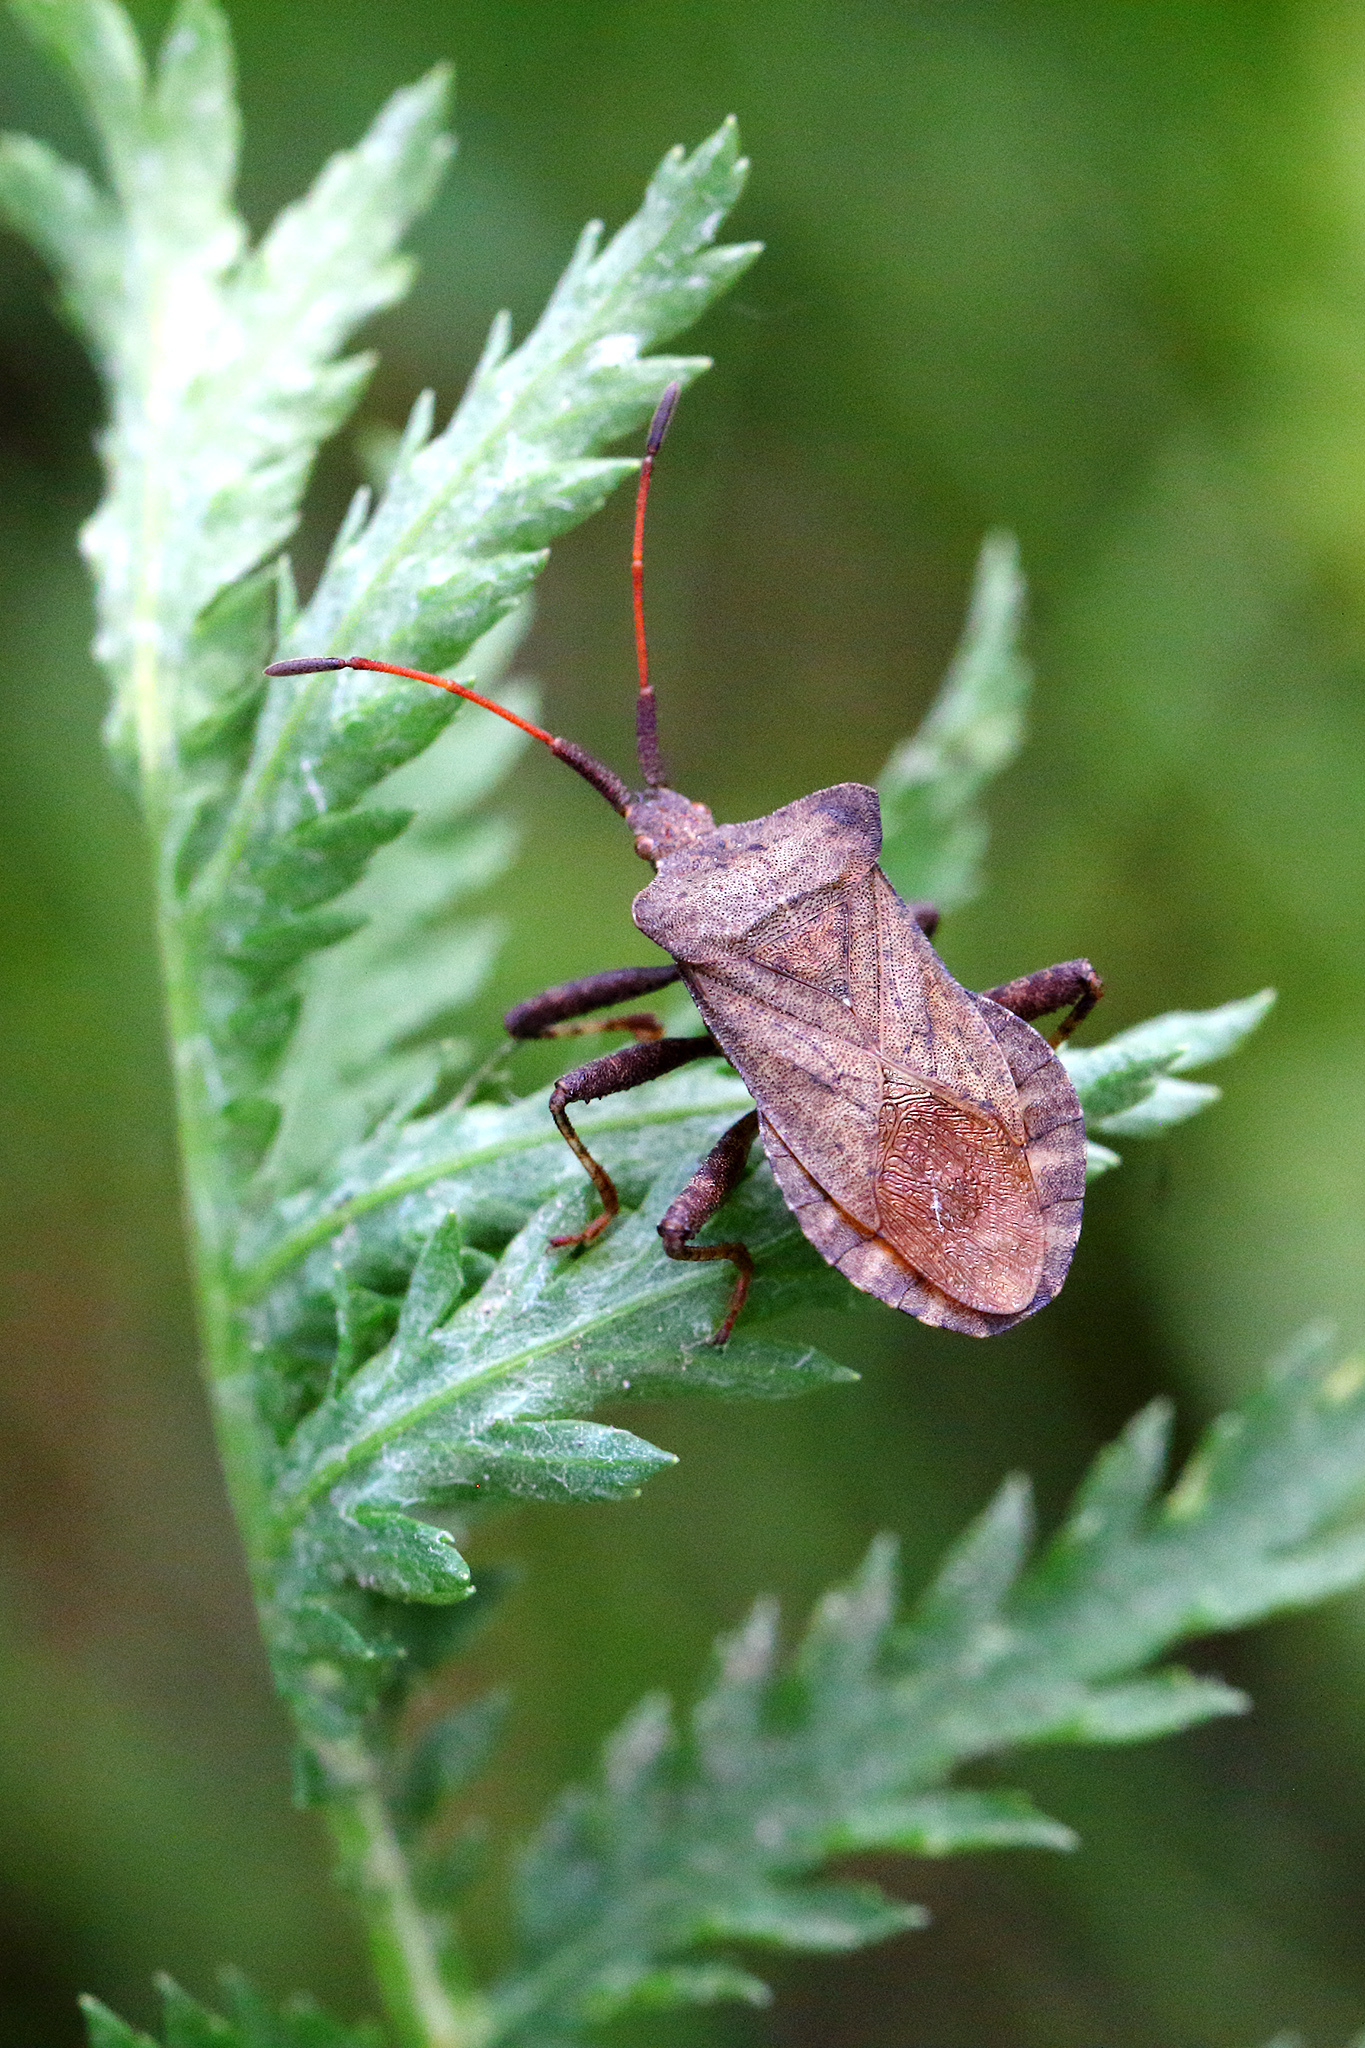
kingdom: Animalia
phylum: Arthropoda
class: Insecta
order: Hemiptera
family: Coreidae
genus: Coreus
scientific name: Coreus marginatus
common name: Dock bug
